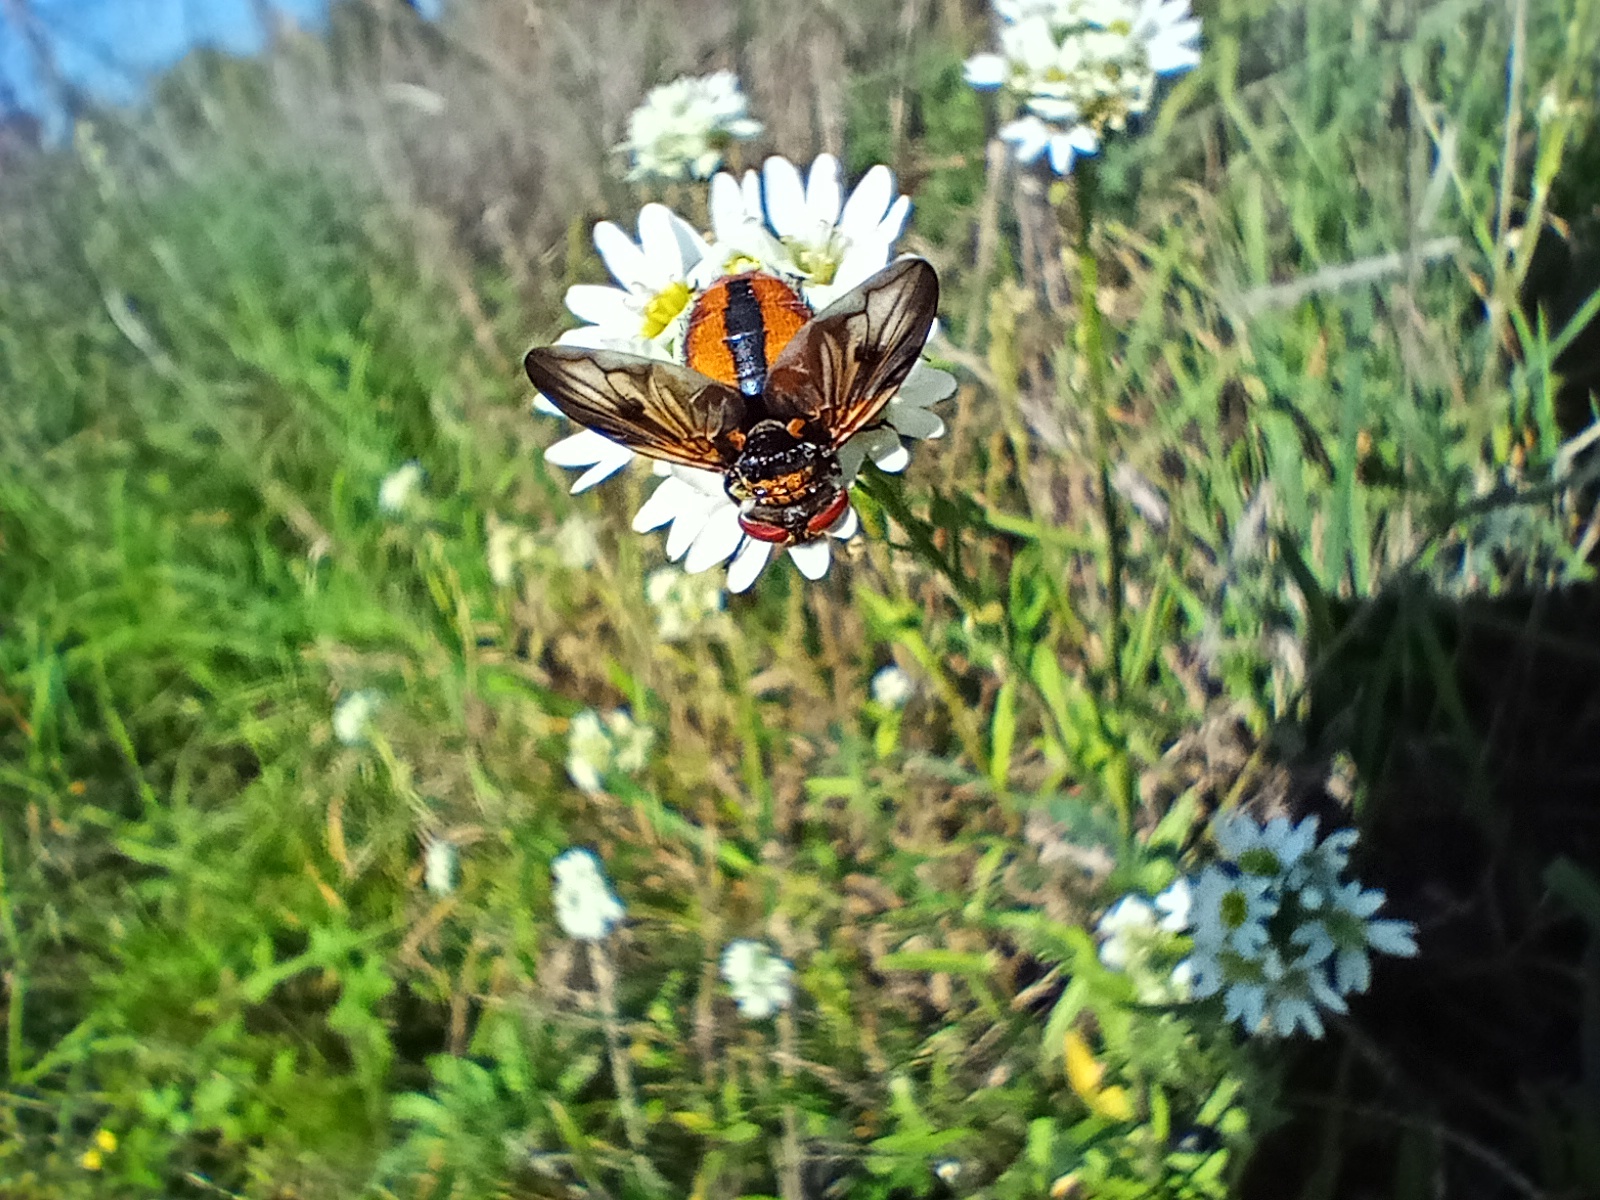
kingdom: Animalia
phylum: Arthropoda
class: Insecta
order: Diptera
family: Tachinidae
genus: Ectophasia
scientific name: Ectophasia crassipennis
